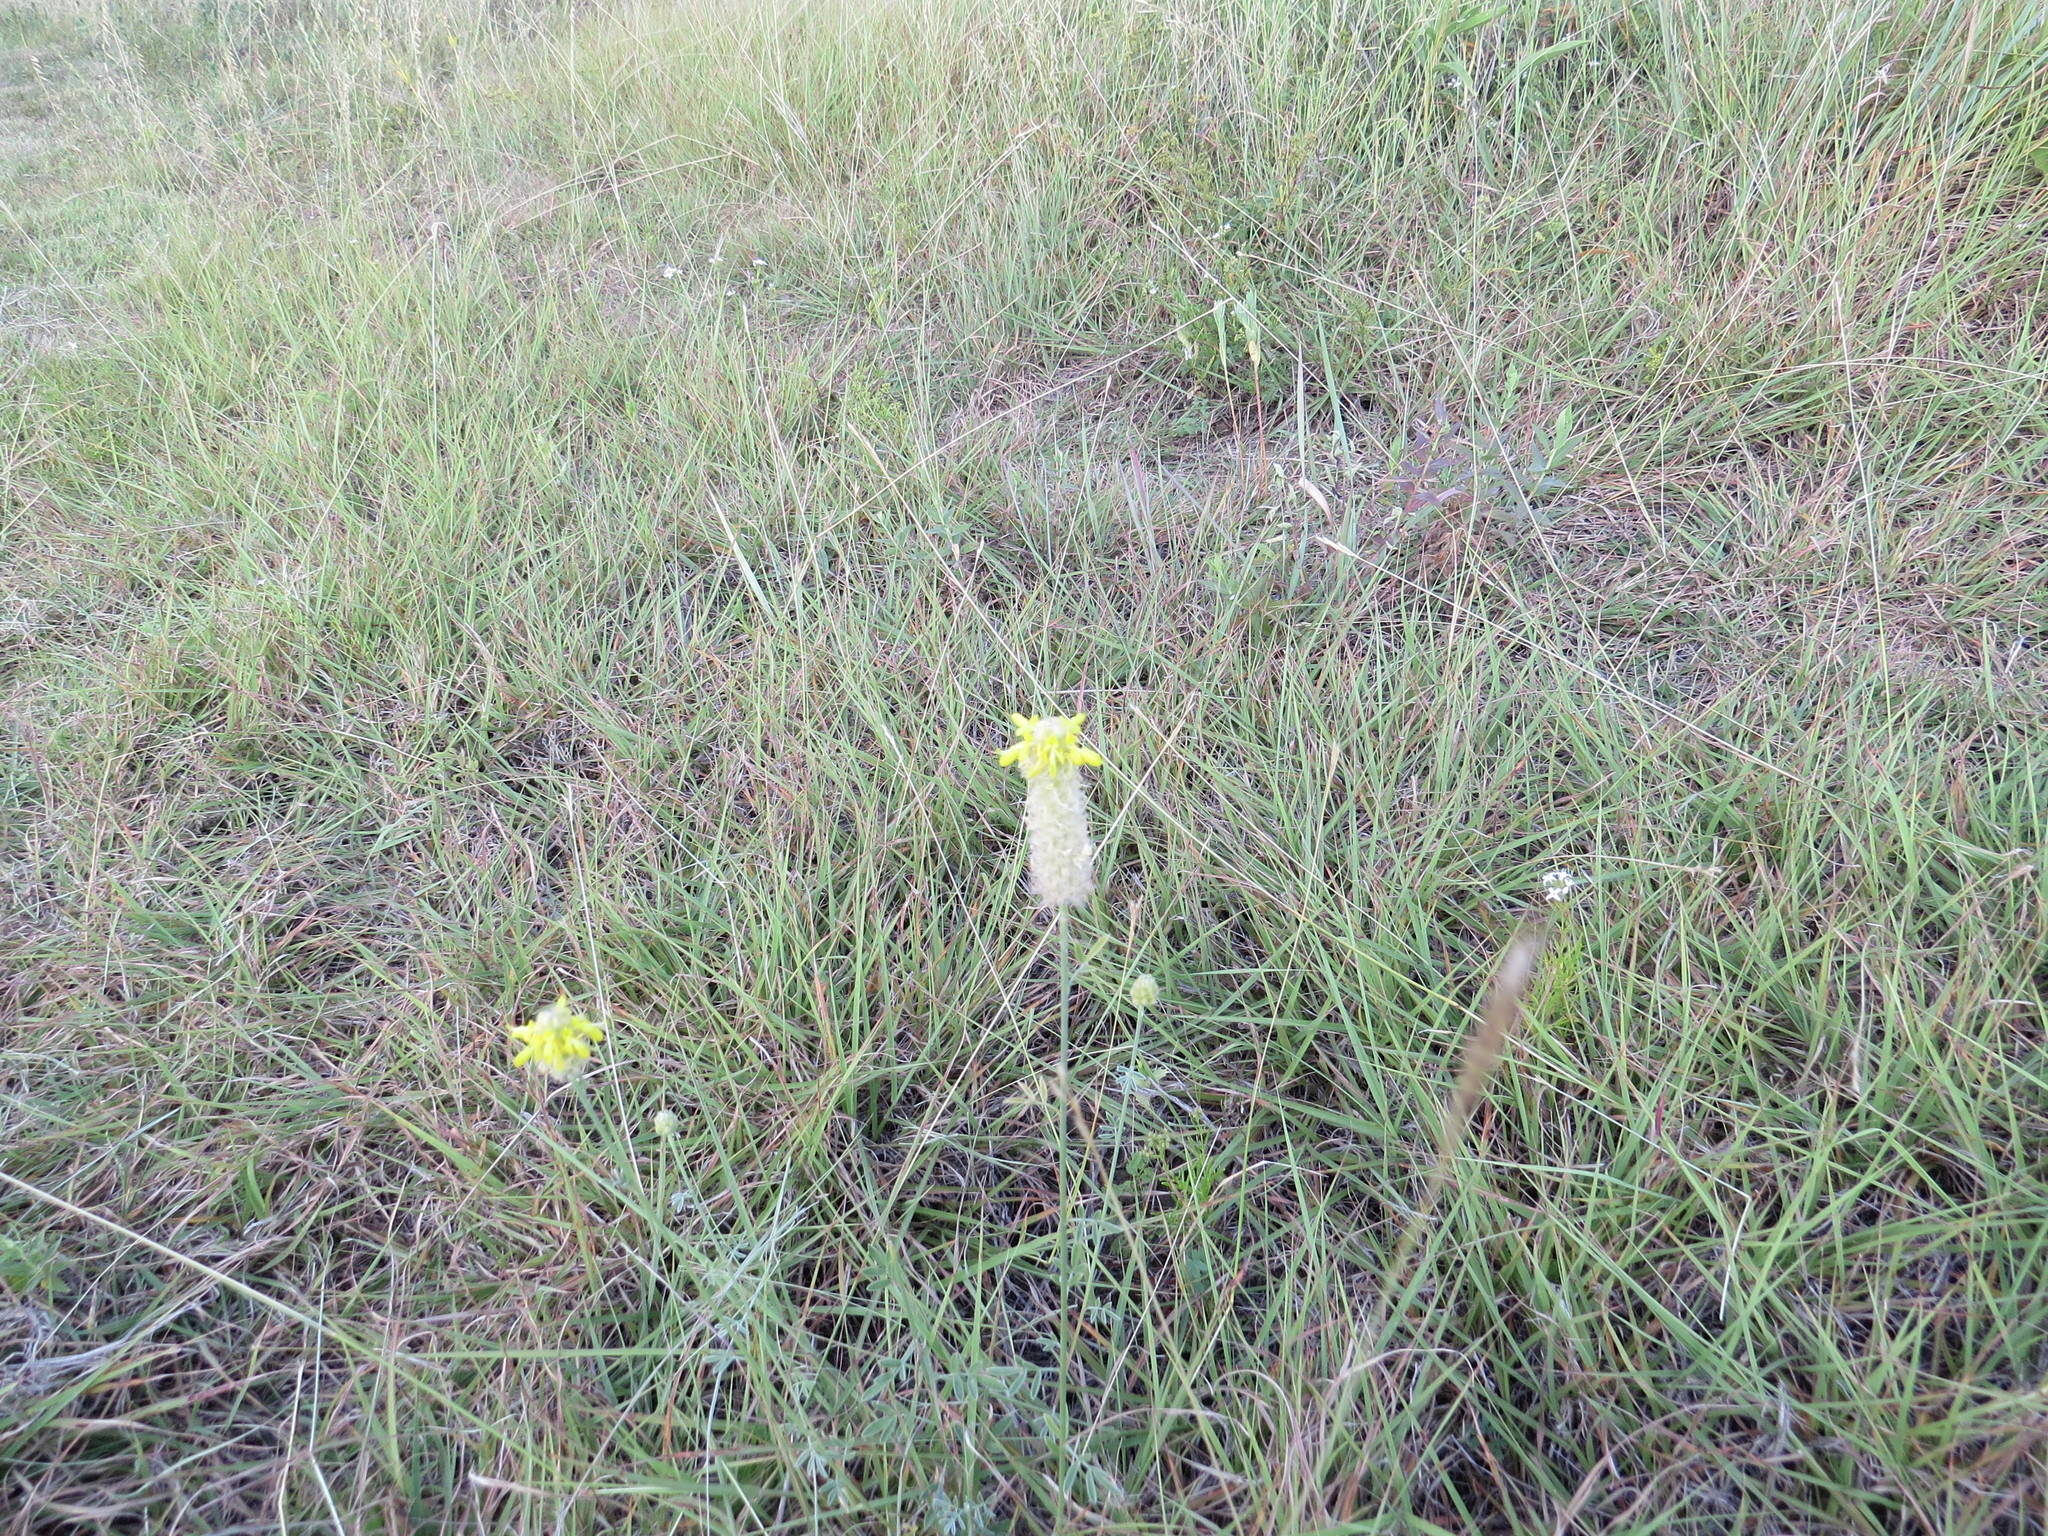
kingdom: Plantae
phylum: Tracheophyta
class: Magnoliopsida
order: Fabales
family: Fabaceae
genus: Dalea
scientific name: Dalea aurea
